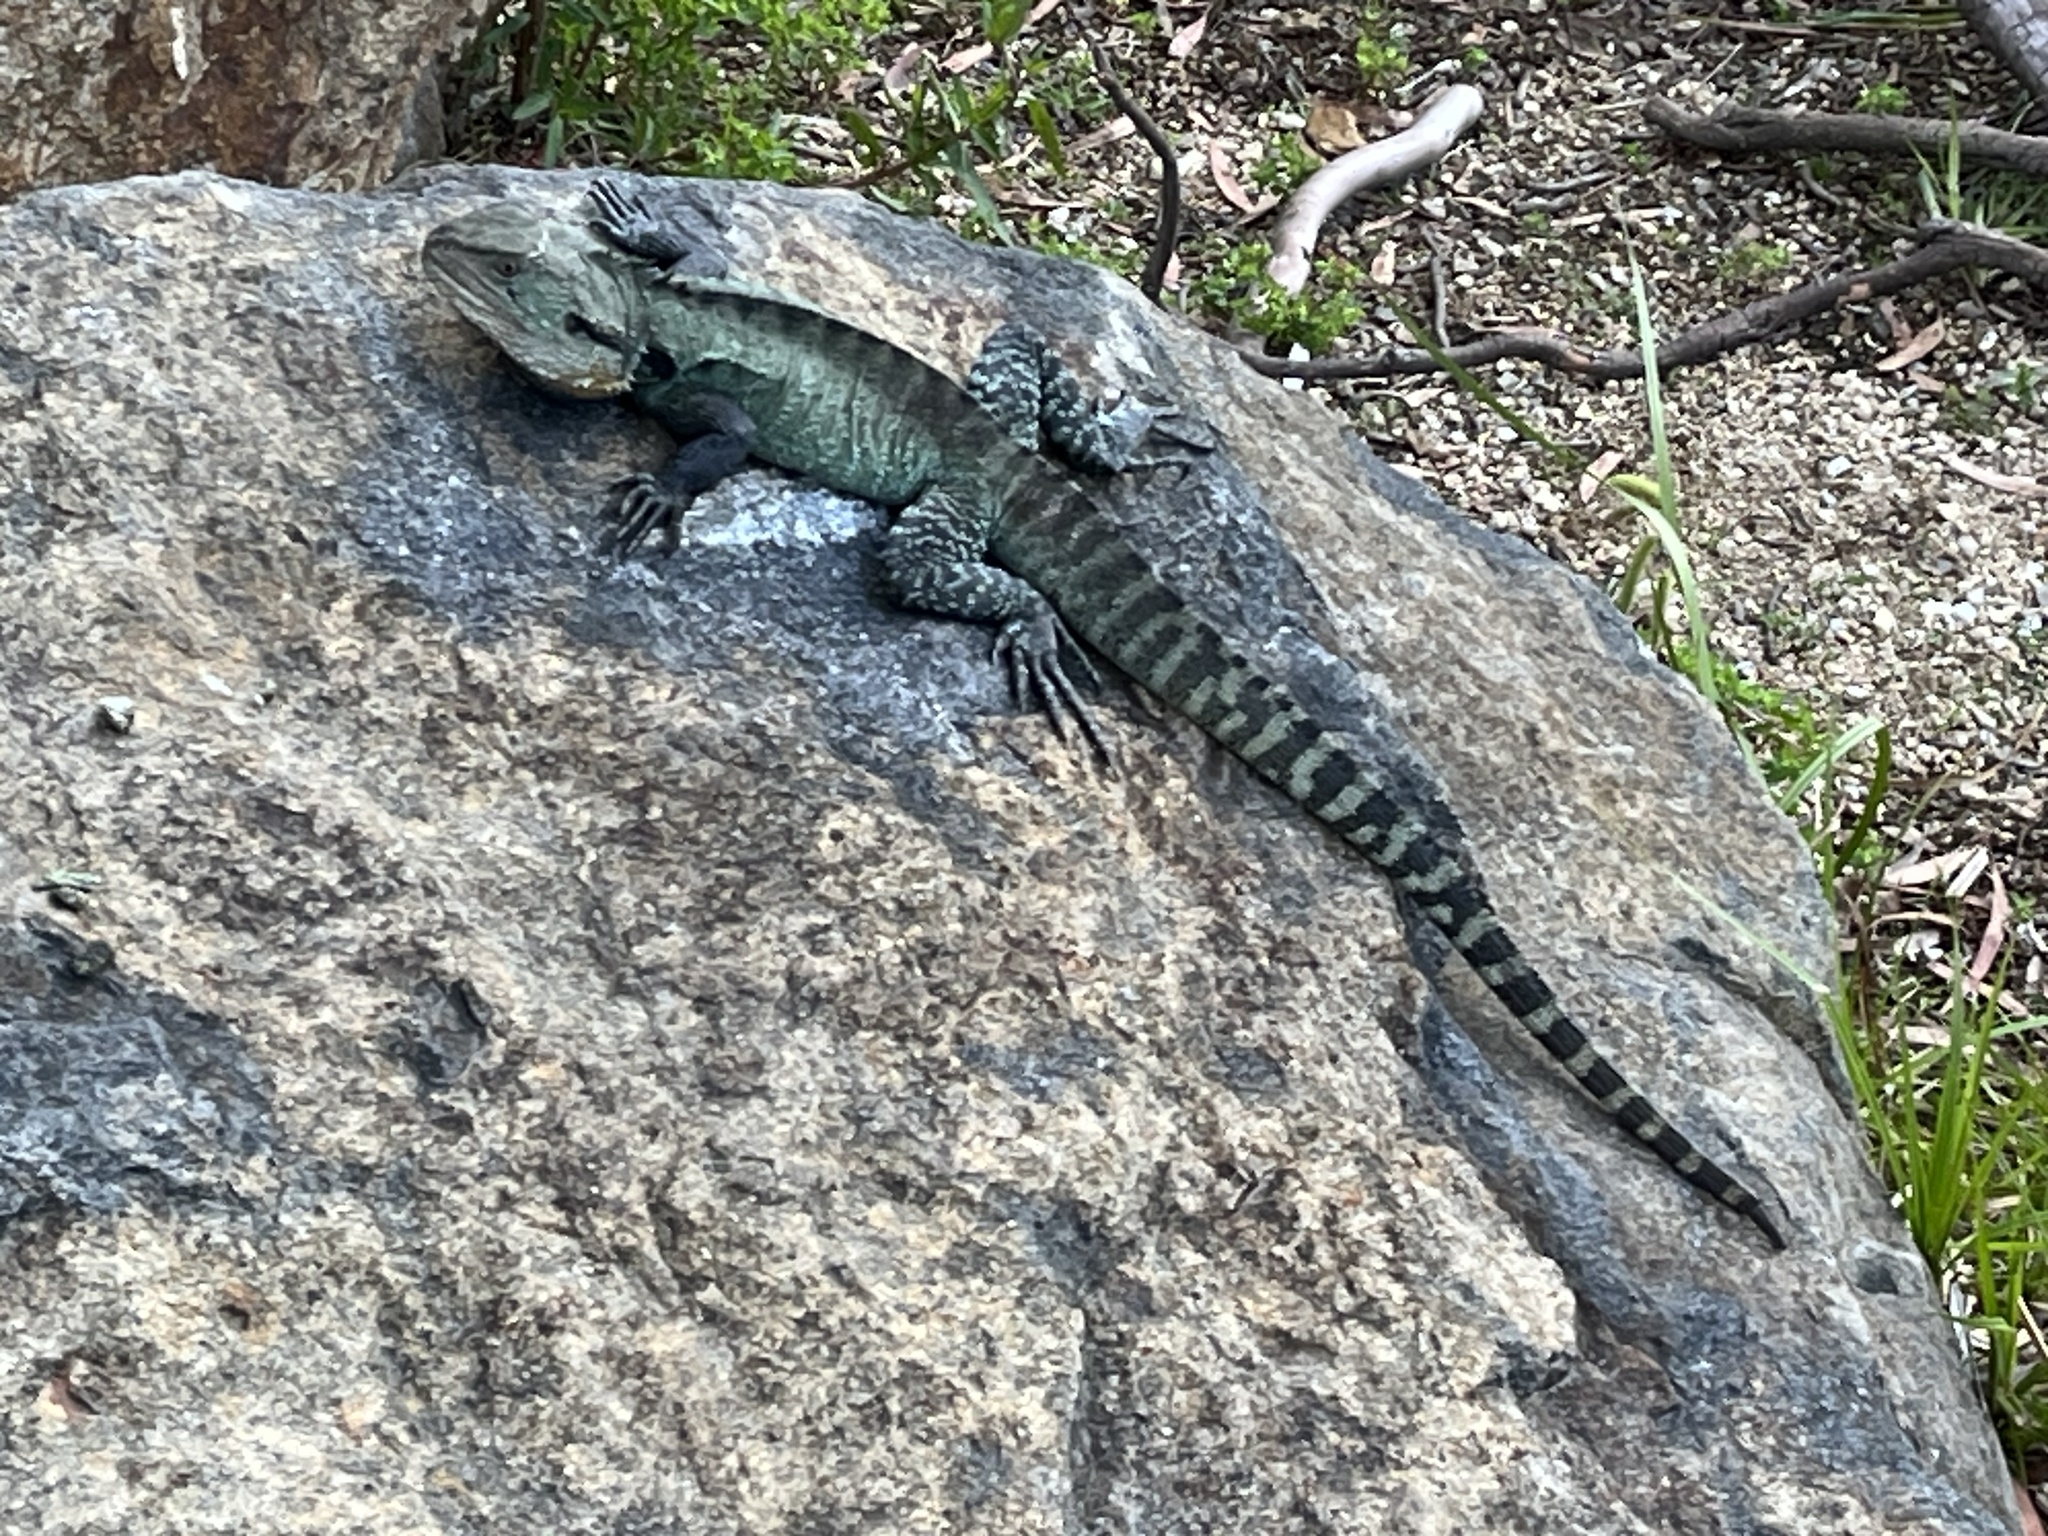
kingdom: Animalia
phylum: Chordata
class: Squamata
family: Agamidae
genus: Intellagama
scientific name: Intellagama lesueurii
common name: Eastern water dragon
